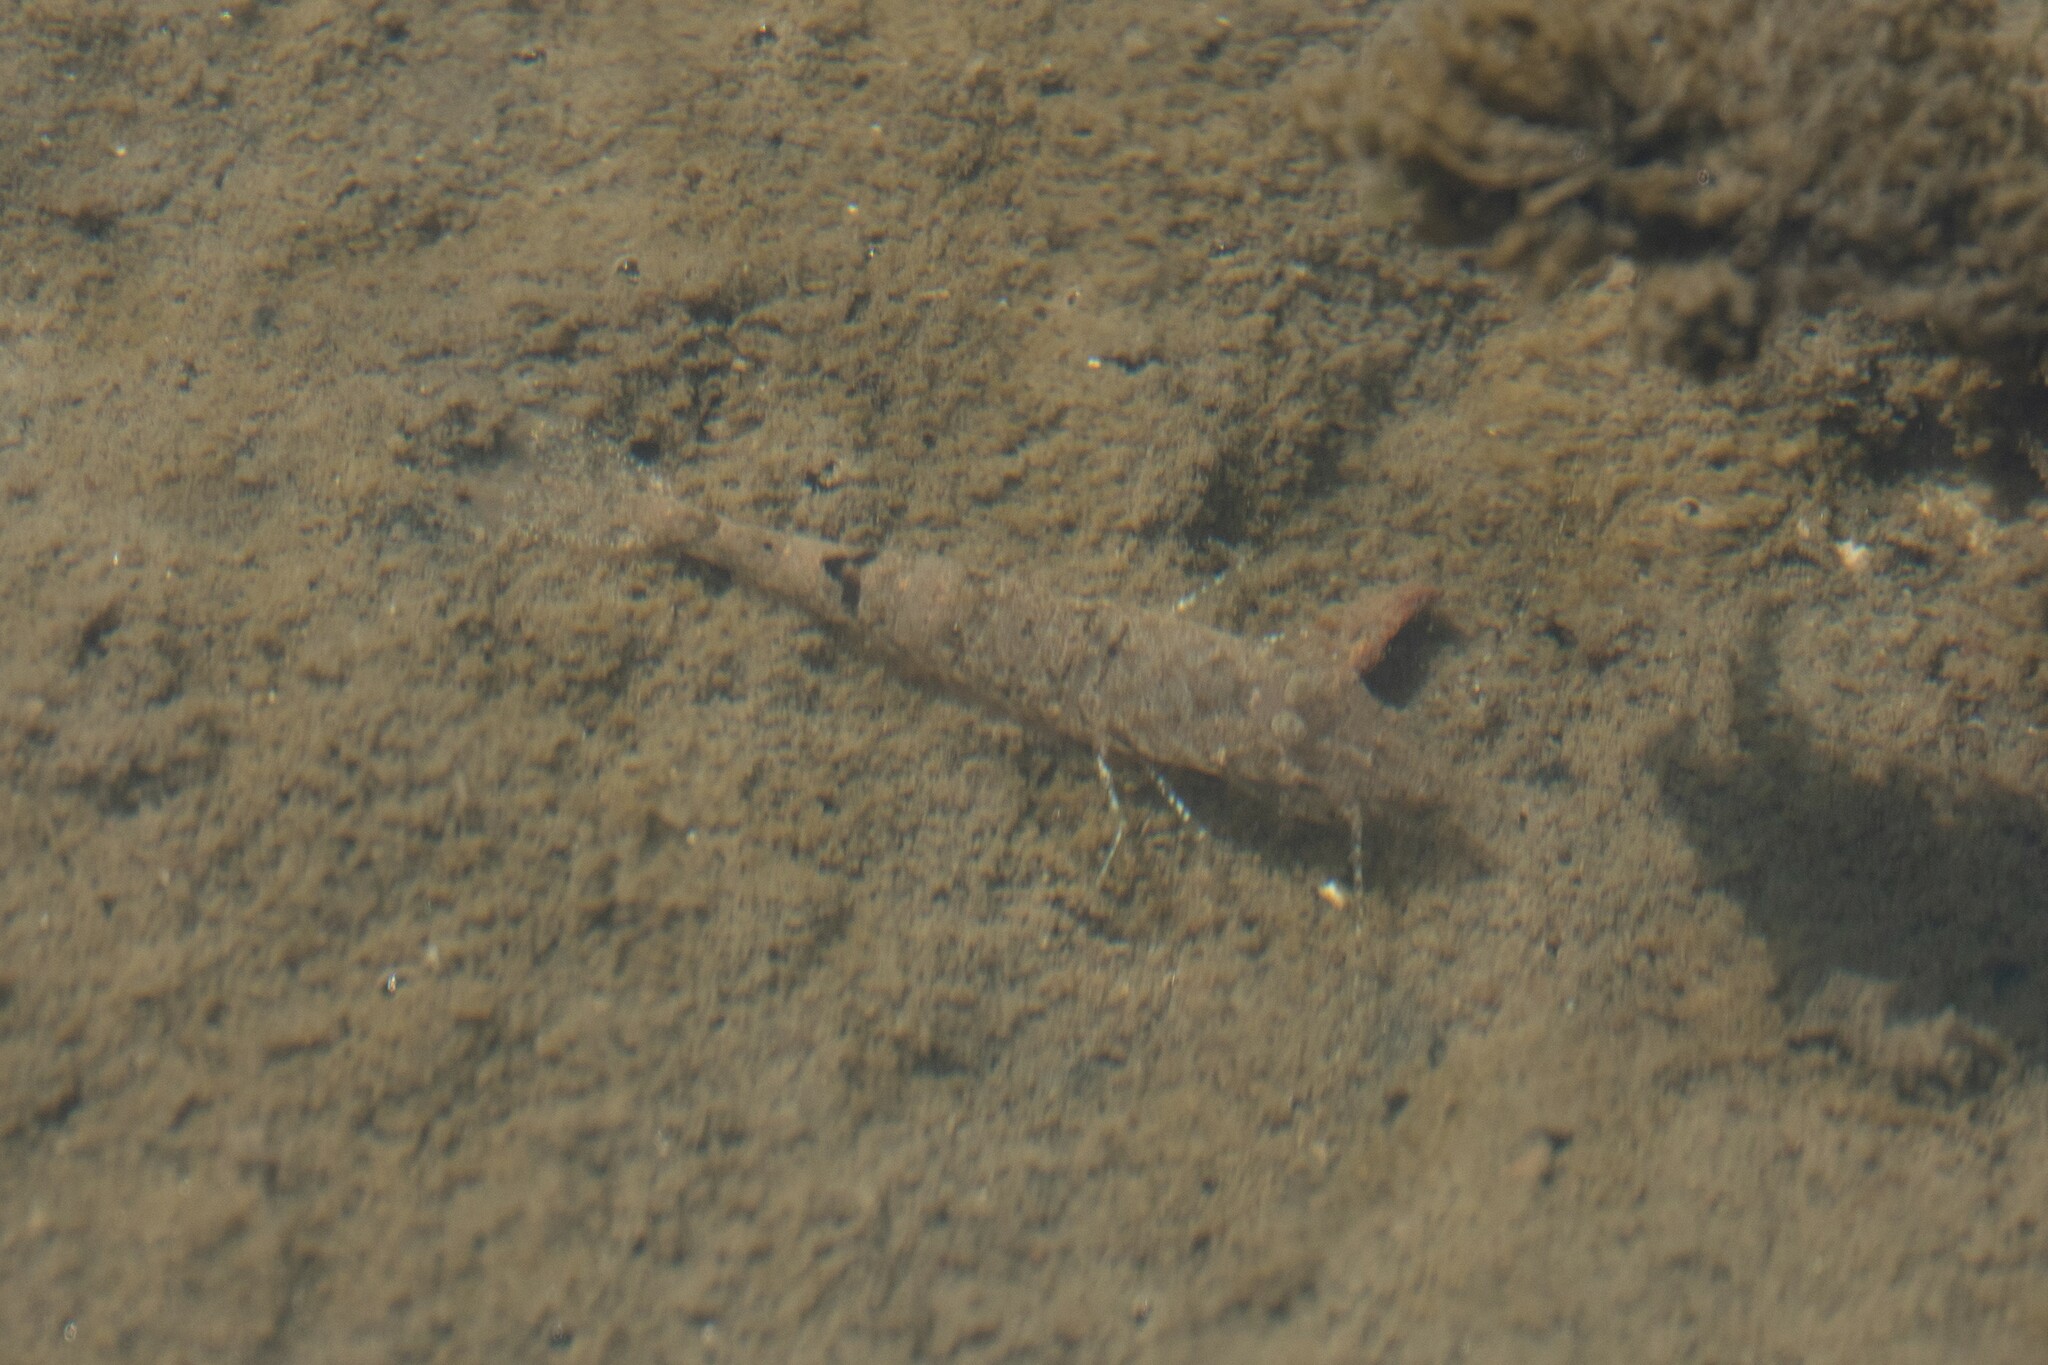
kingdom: Animalia
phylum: Arthropoda
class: Malacostraca
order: Decapoda
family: Crangonidae
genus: Crangon
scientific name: Crangon crangon
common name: Brown shrimp
